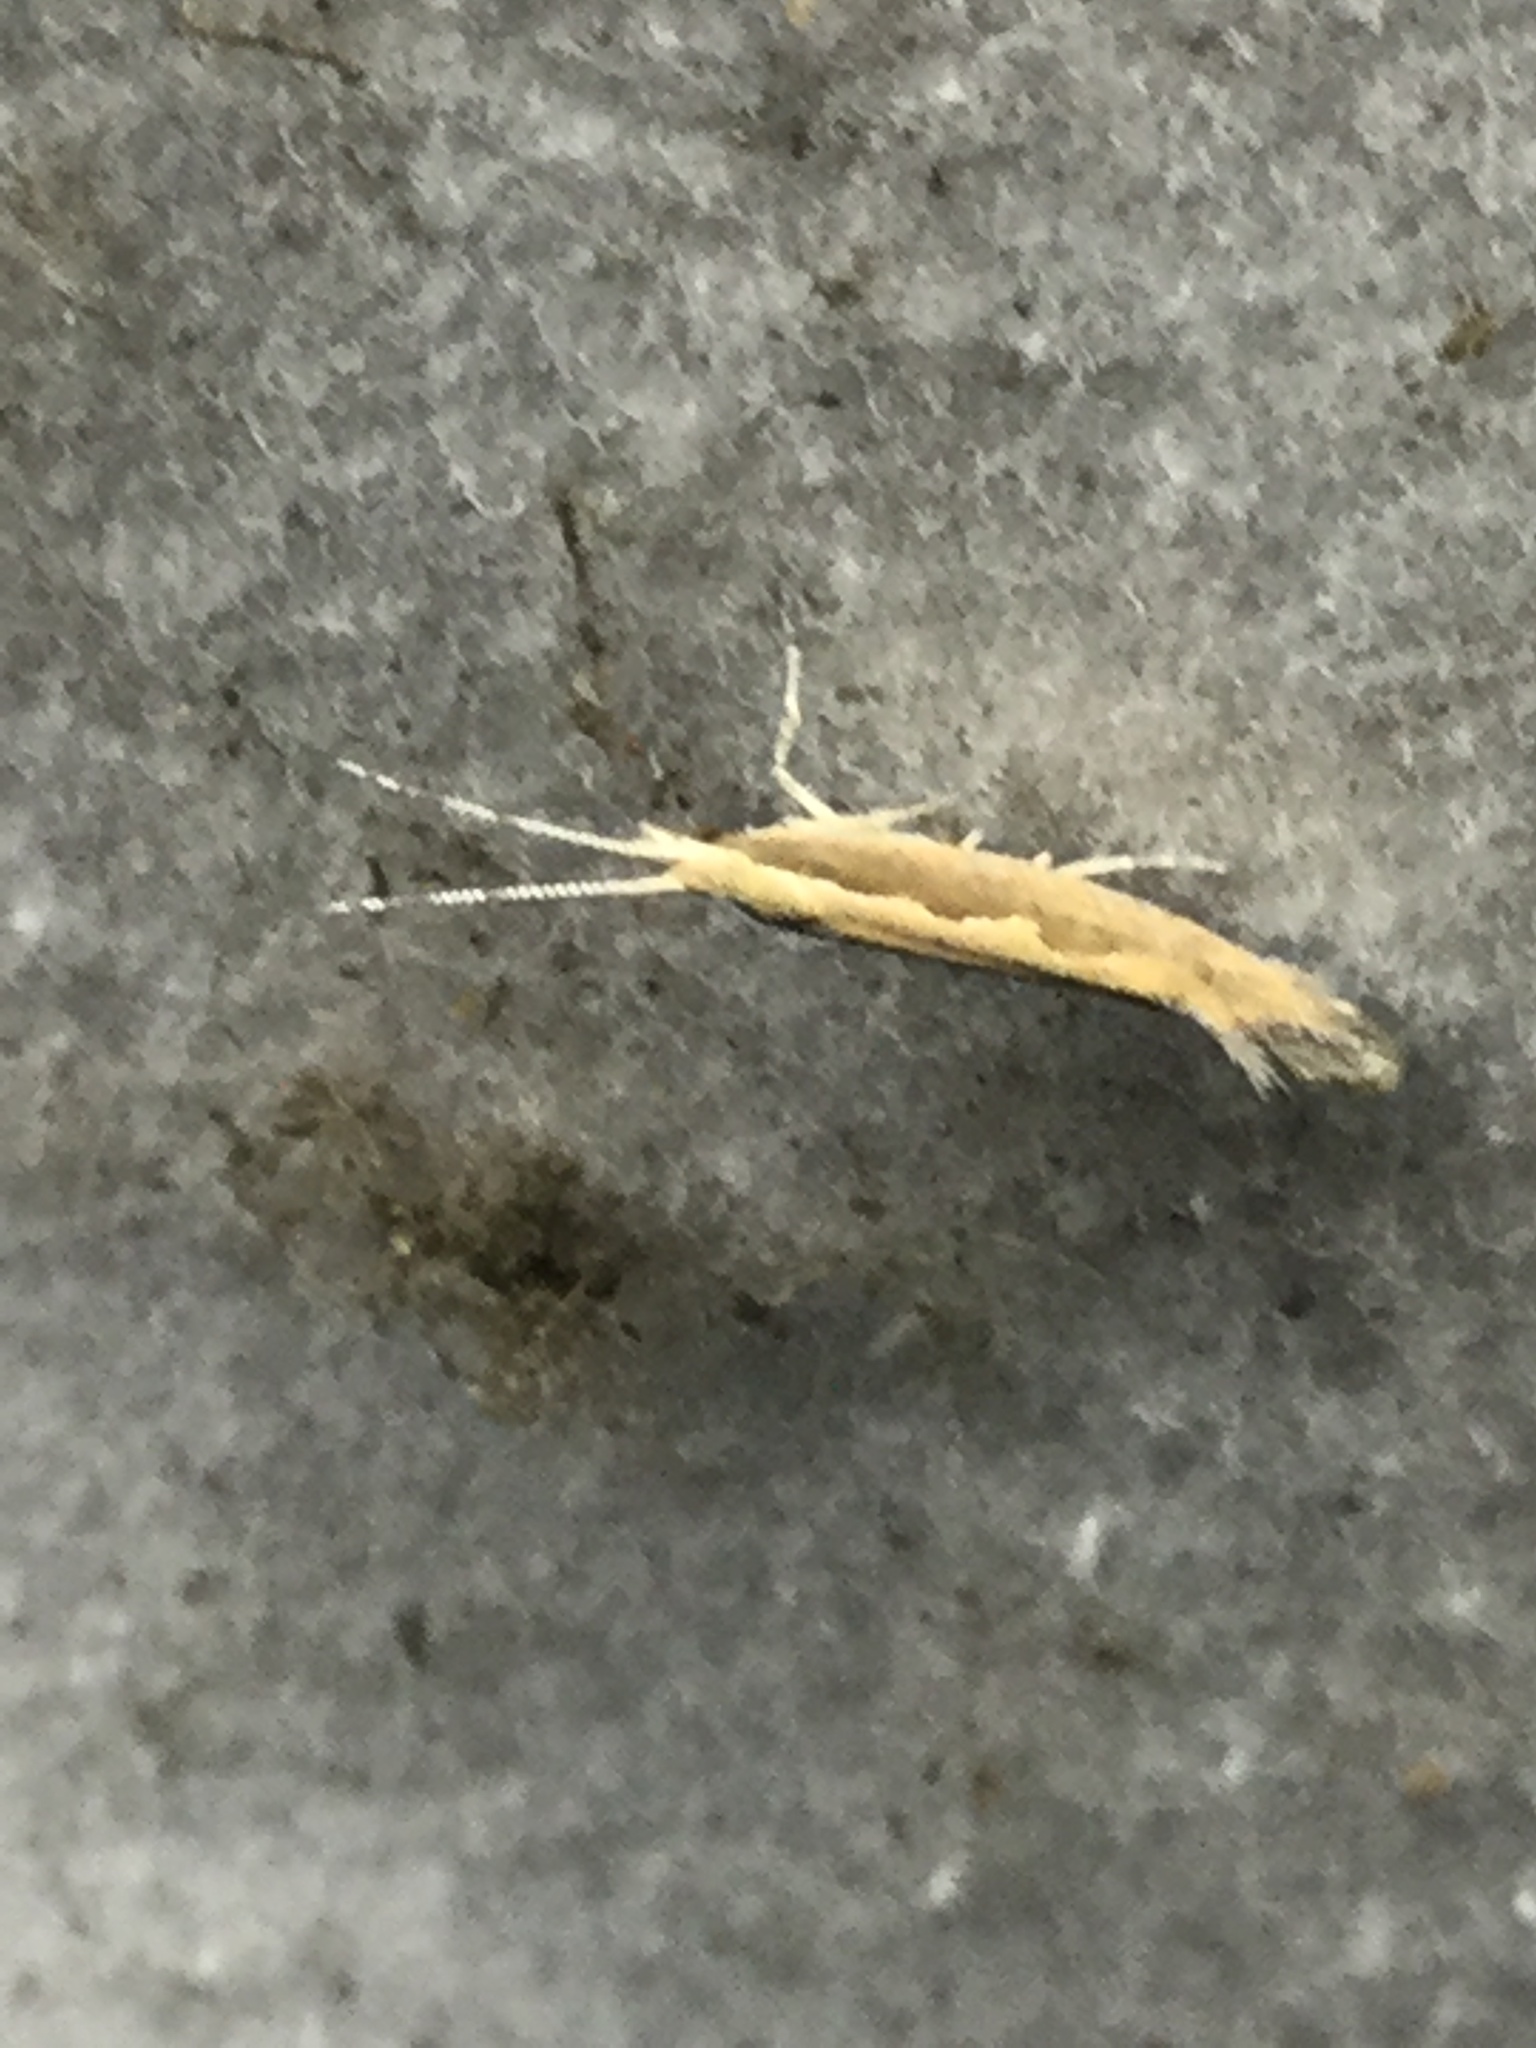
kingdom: Animalia
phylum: Arthropoda
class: Insecta
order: Lepidoptera
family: Plutellidae
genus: Plutella
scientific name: Plutella xylostella
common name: Diamond-back moth
